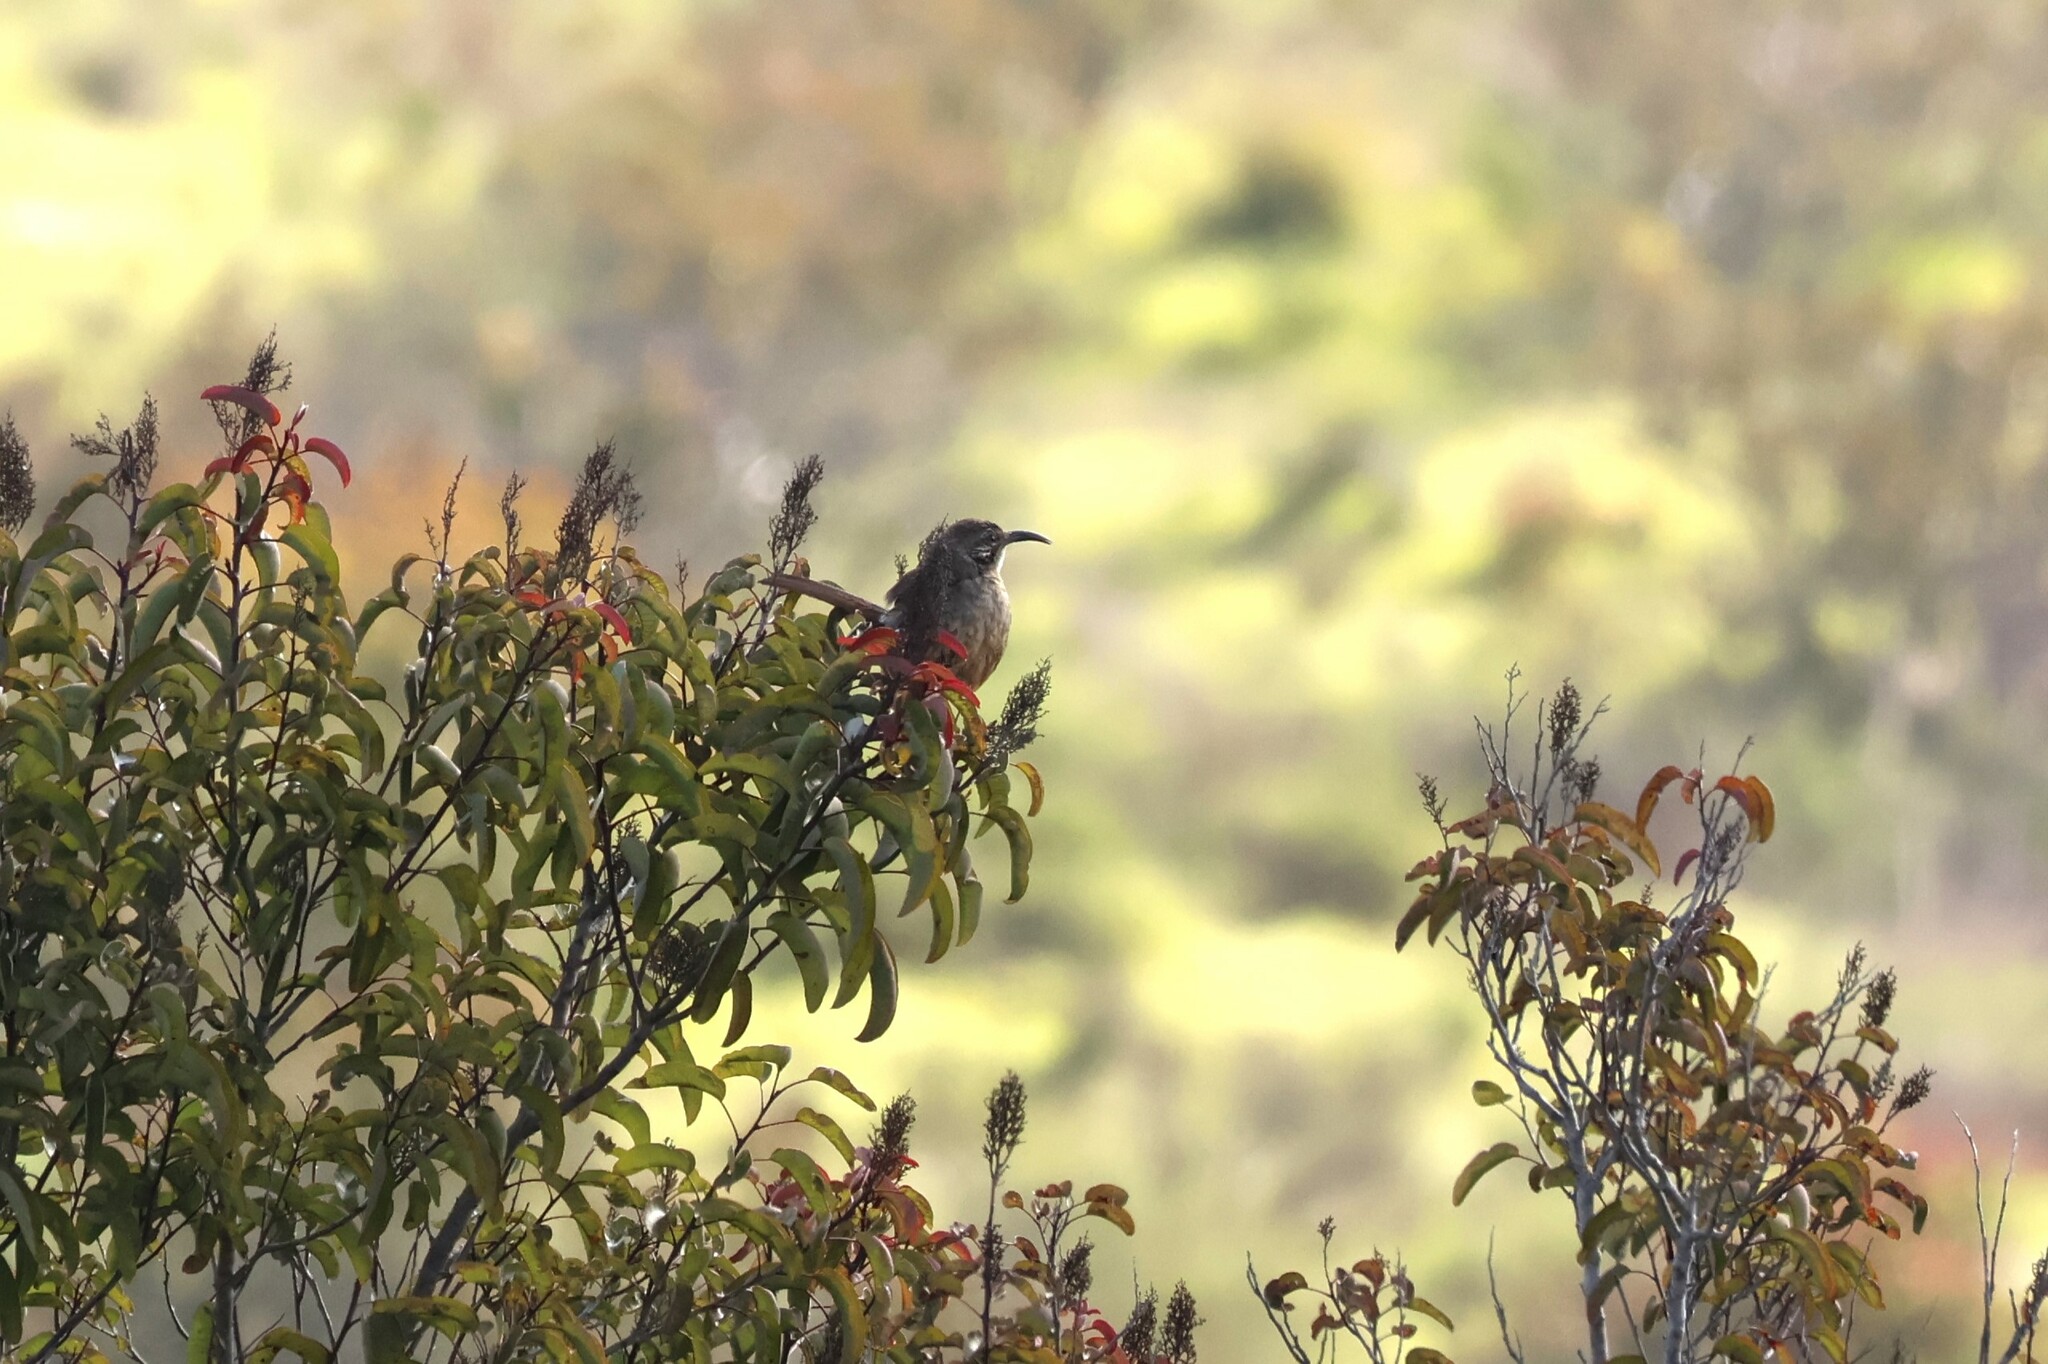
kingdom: Animalia
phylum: Chordata
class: Aves
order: Passeriformes
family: Mimidae
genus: Toxostoma
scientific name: Toxostoma redivivum
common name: California thrasher
